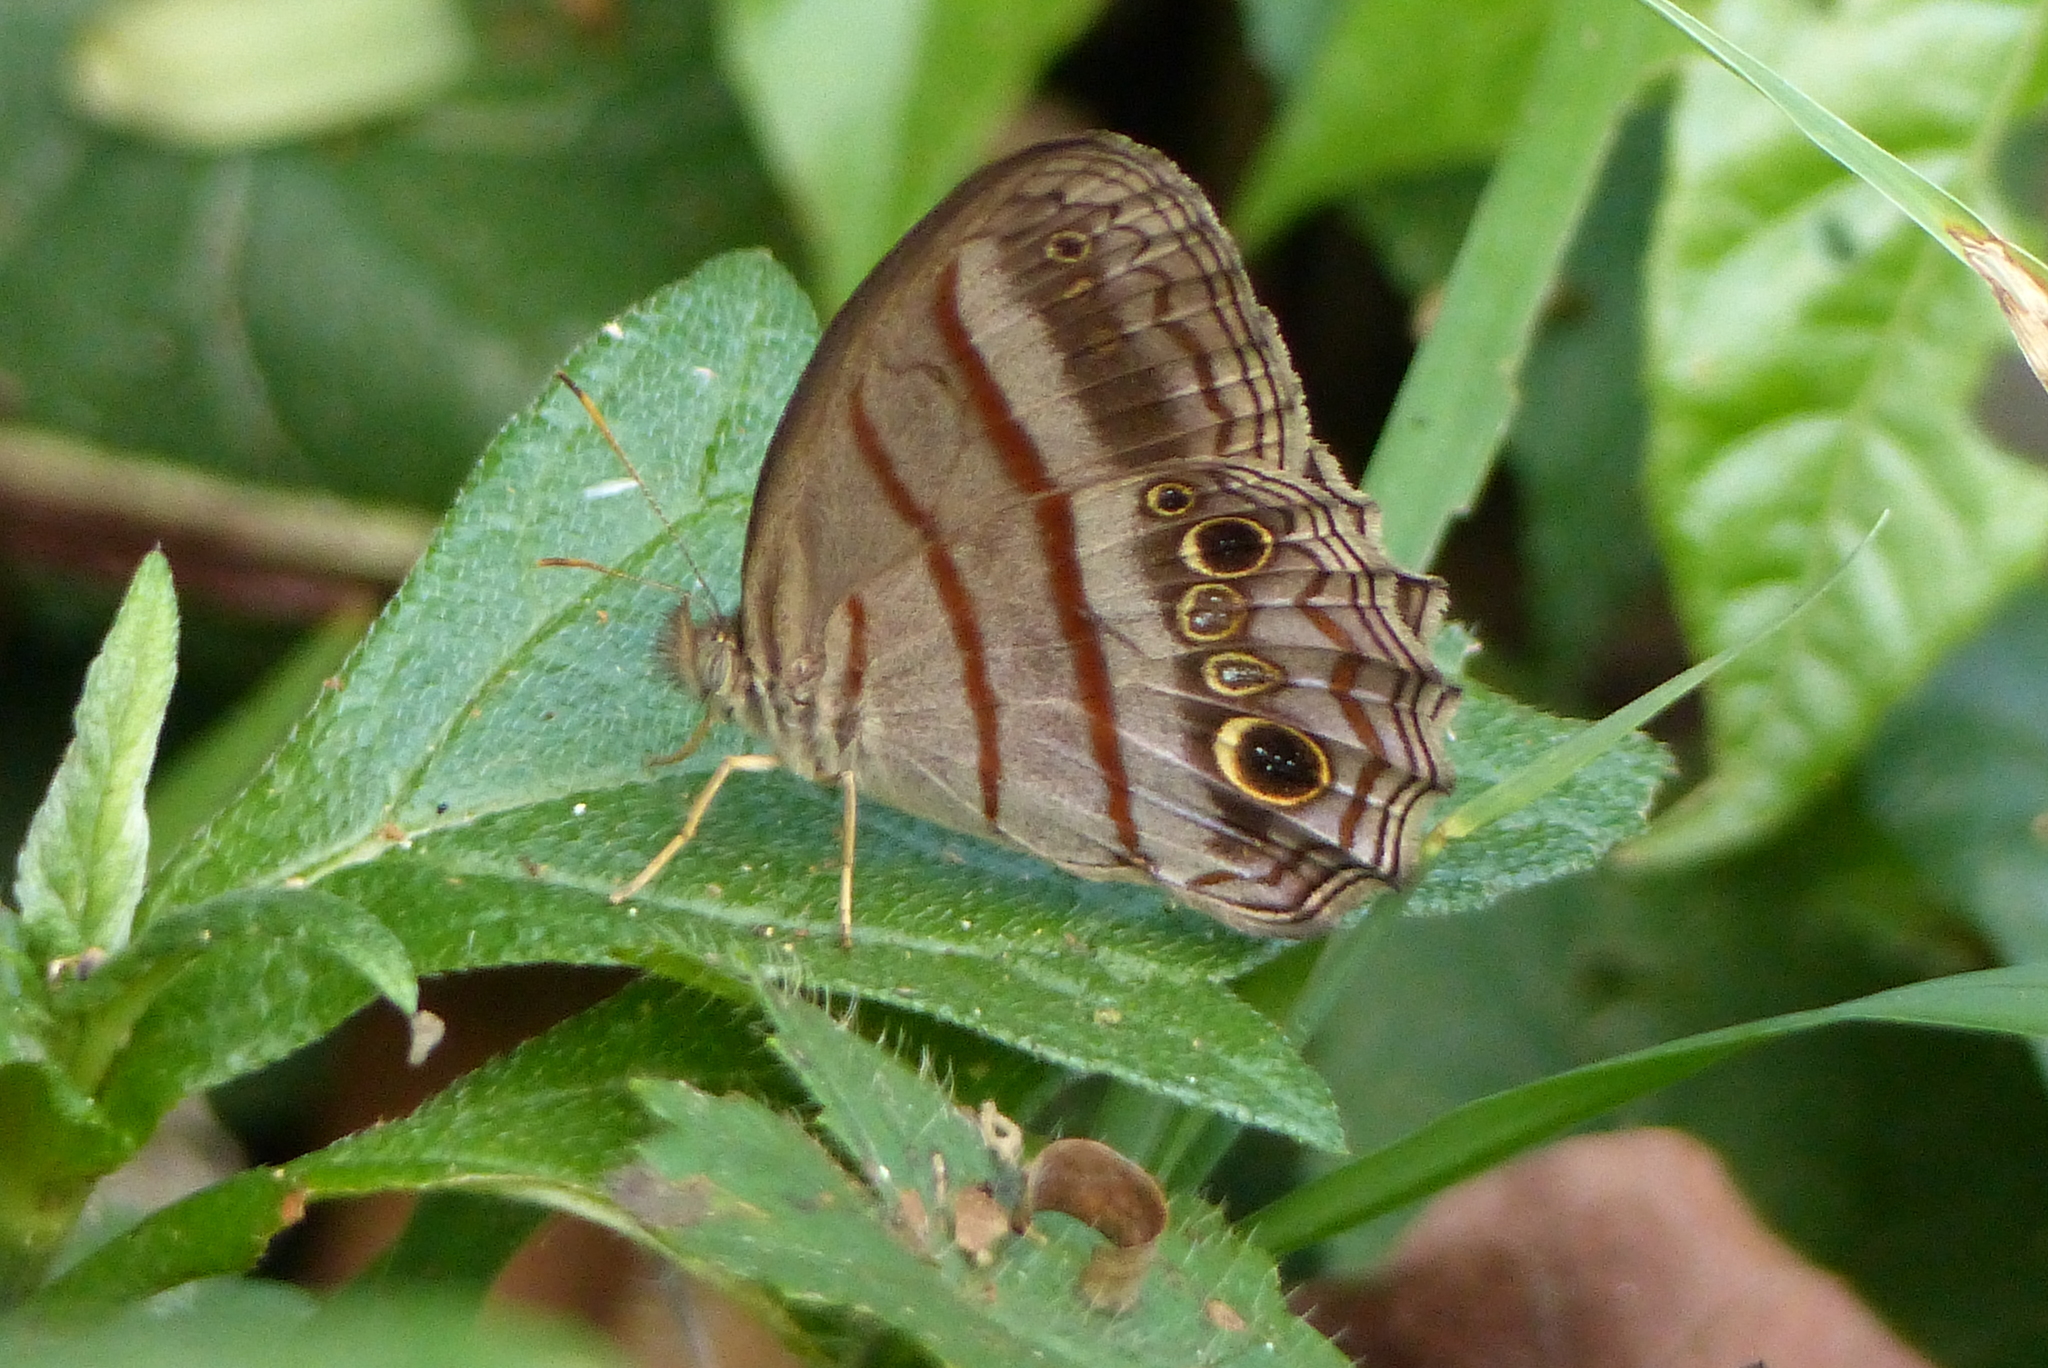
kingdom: Animalia
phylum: Arthropoda
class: Insecta
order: Lepidoptera
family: Nymphalidae
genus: Magneuptychia
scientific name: Magneuptychia libye
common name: Blue-gray satyr
